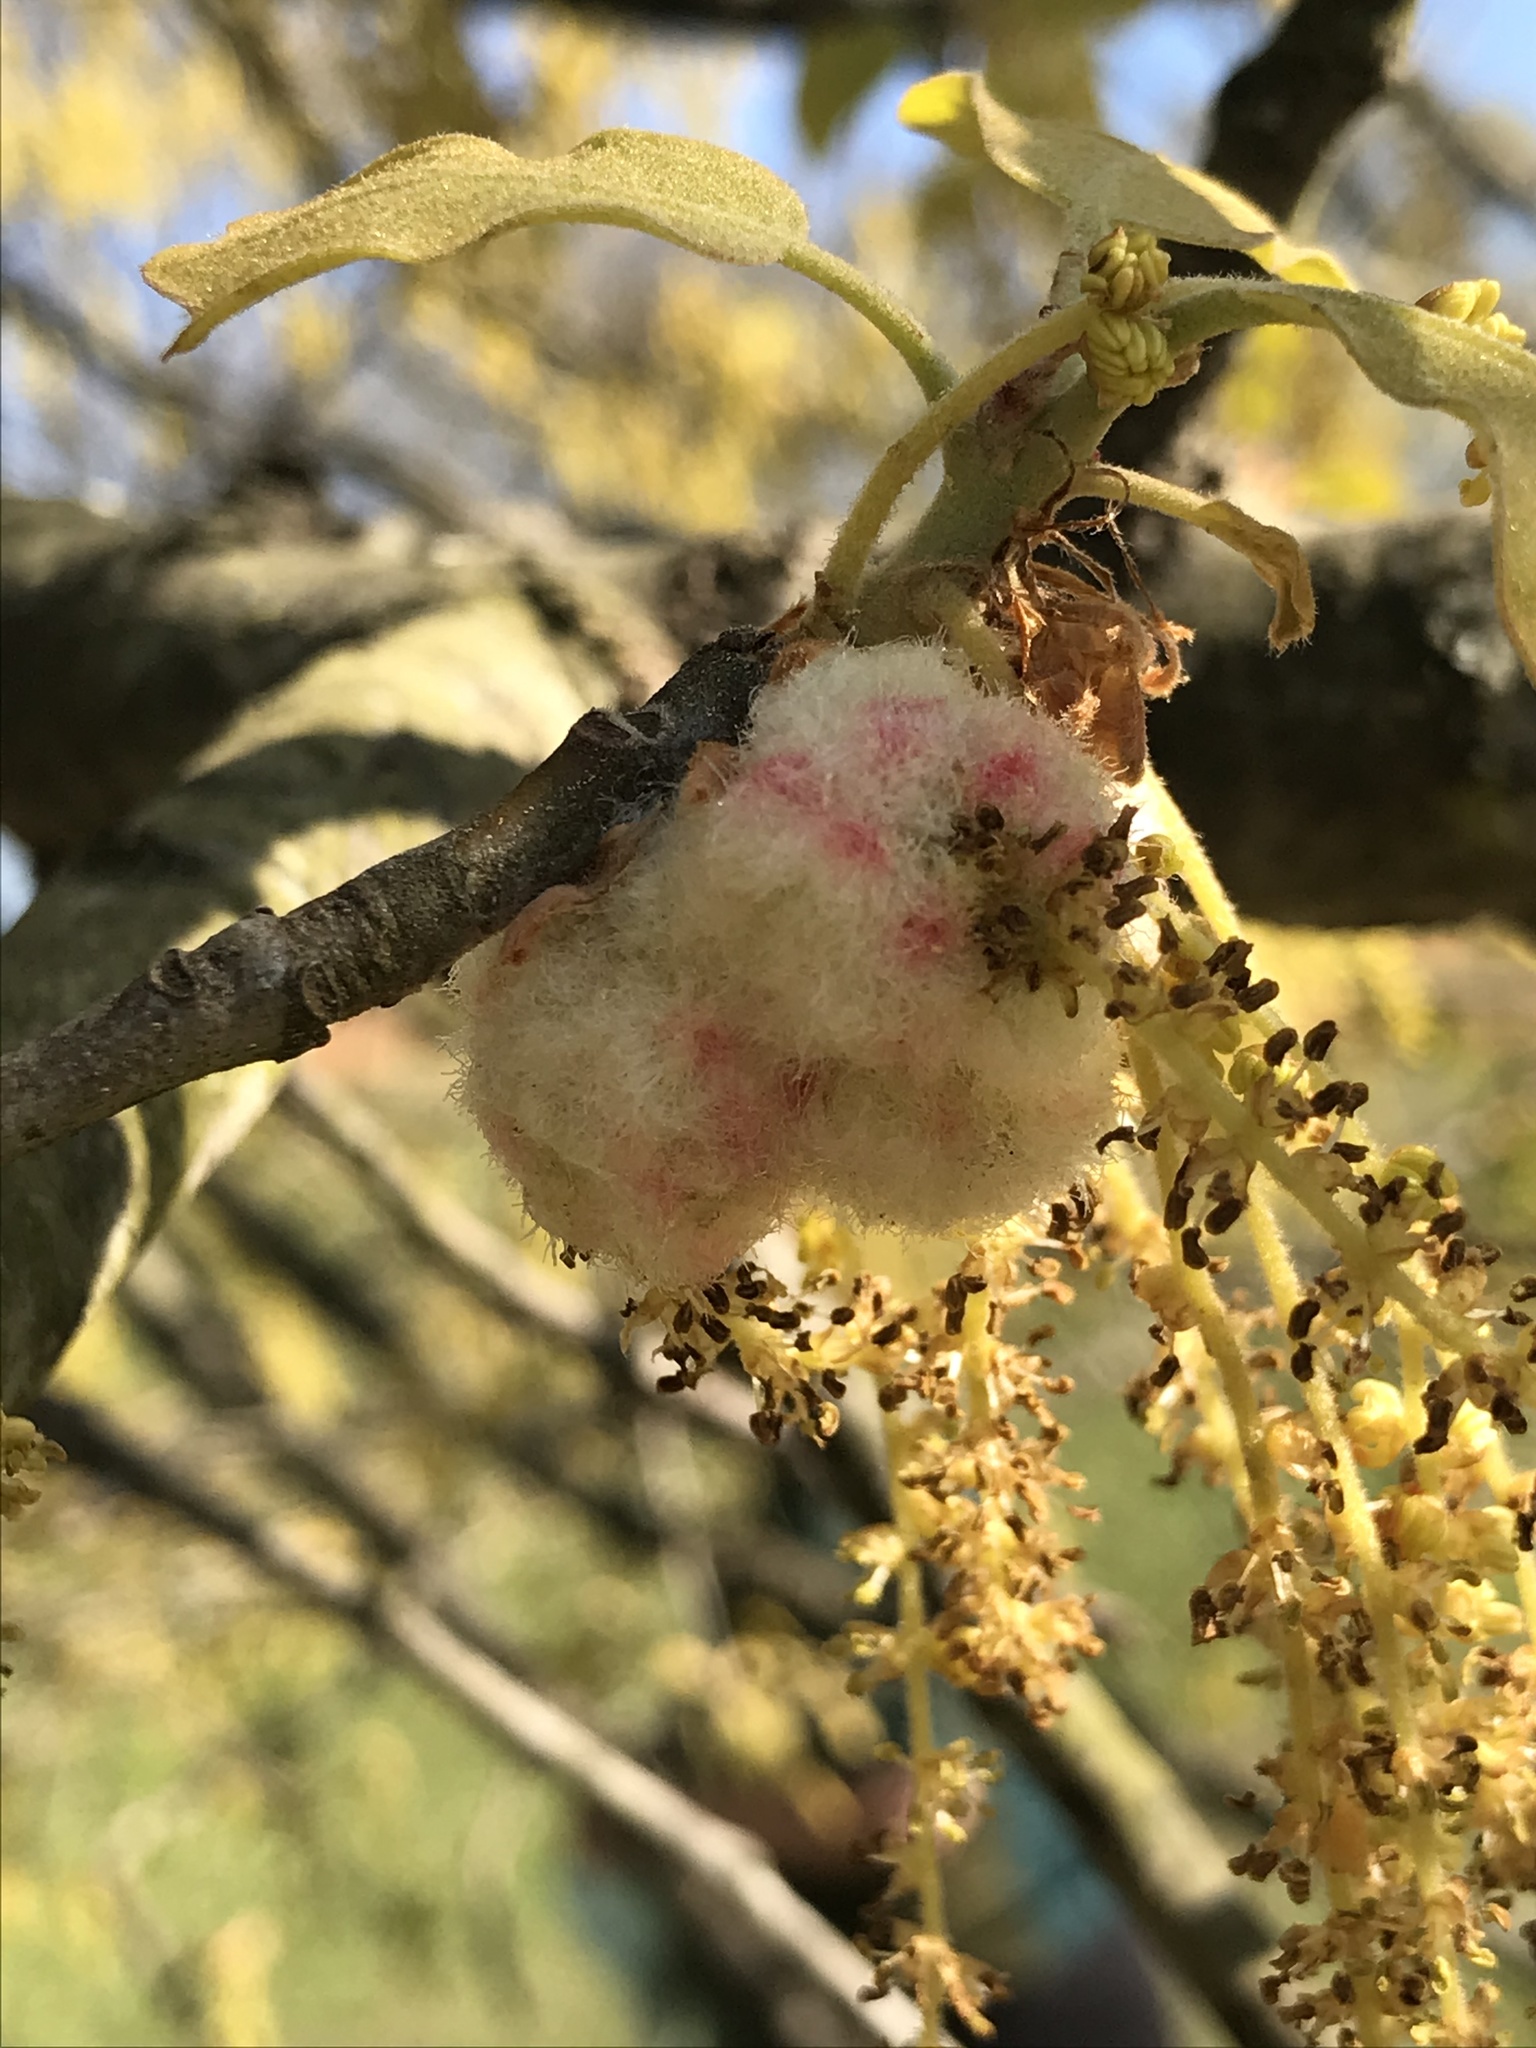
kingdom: Animalia
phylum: Arthropoda
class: Insecta
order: Hymenoptera
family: Cynipidae
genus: Callirhytis
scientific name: Callirhytis
